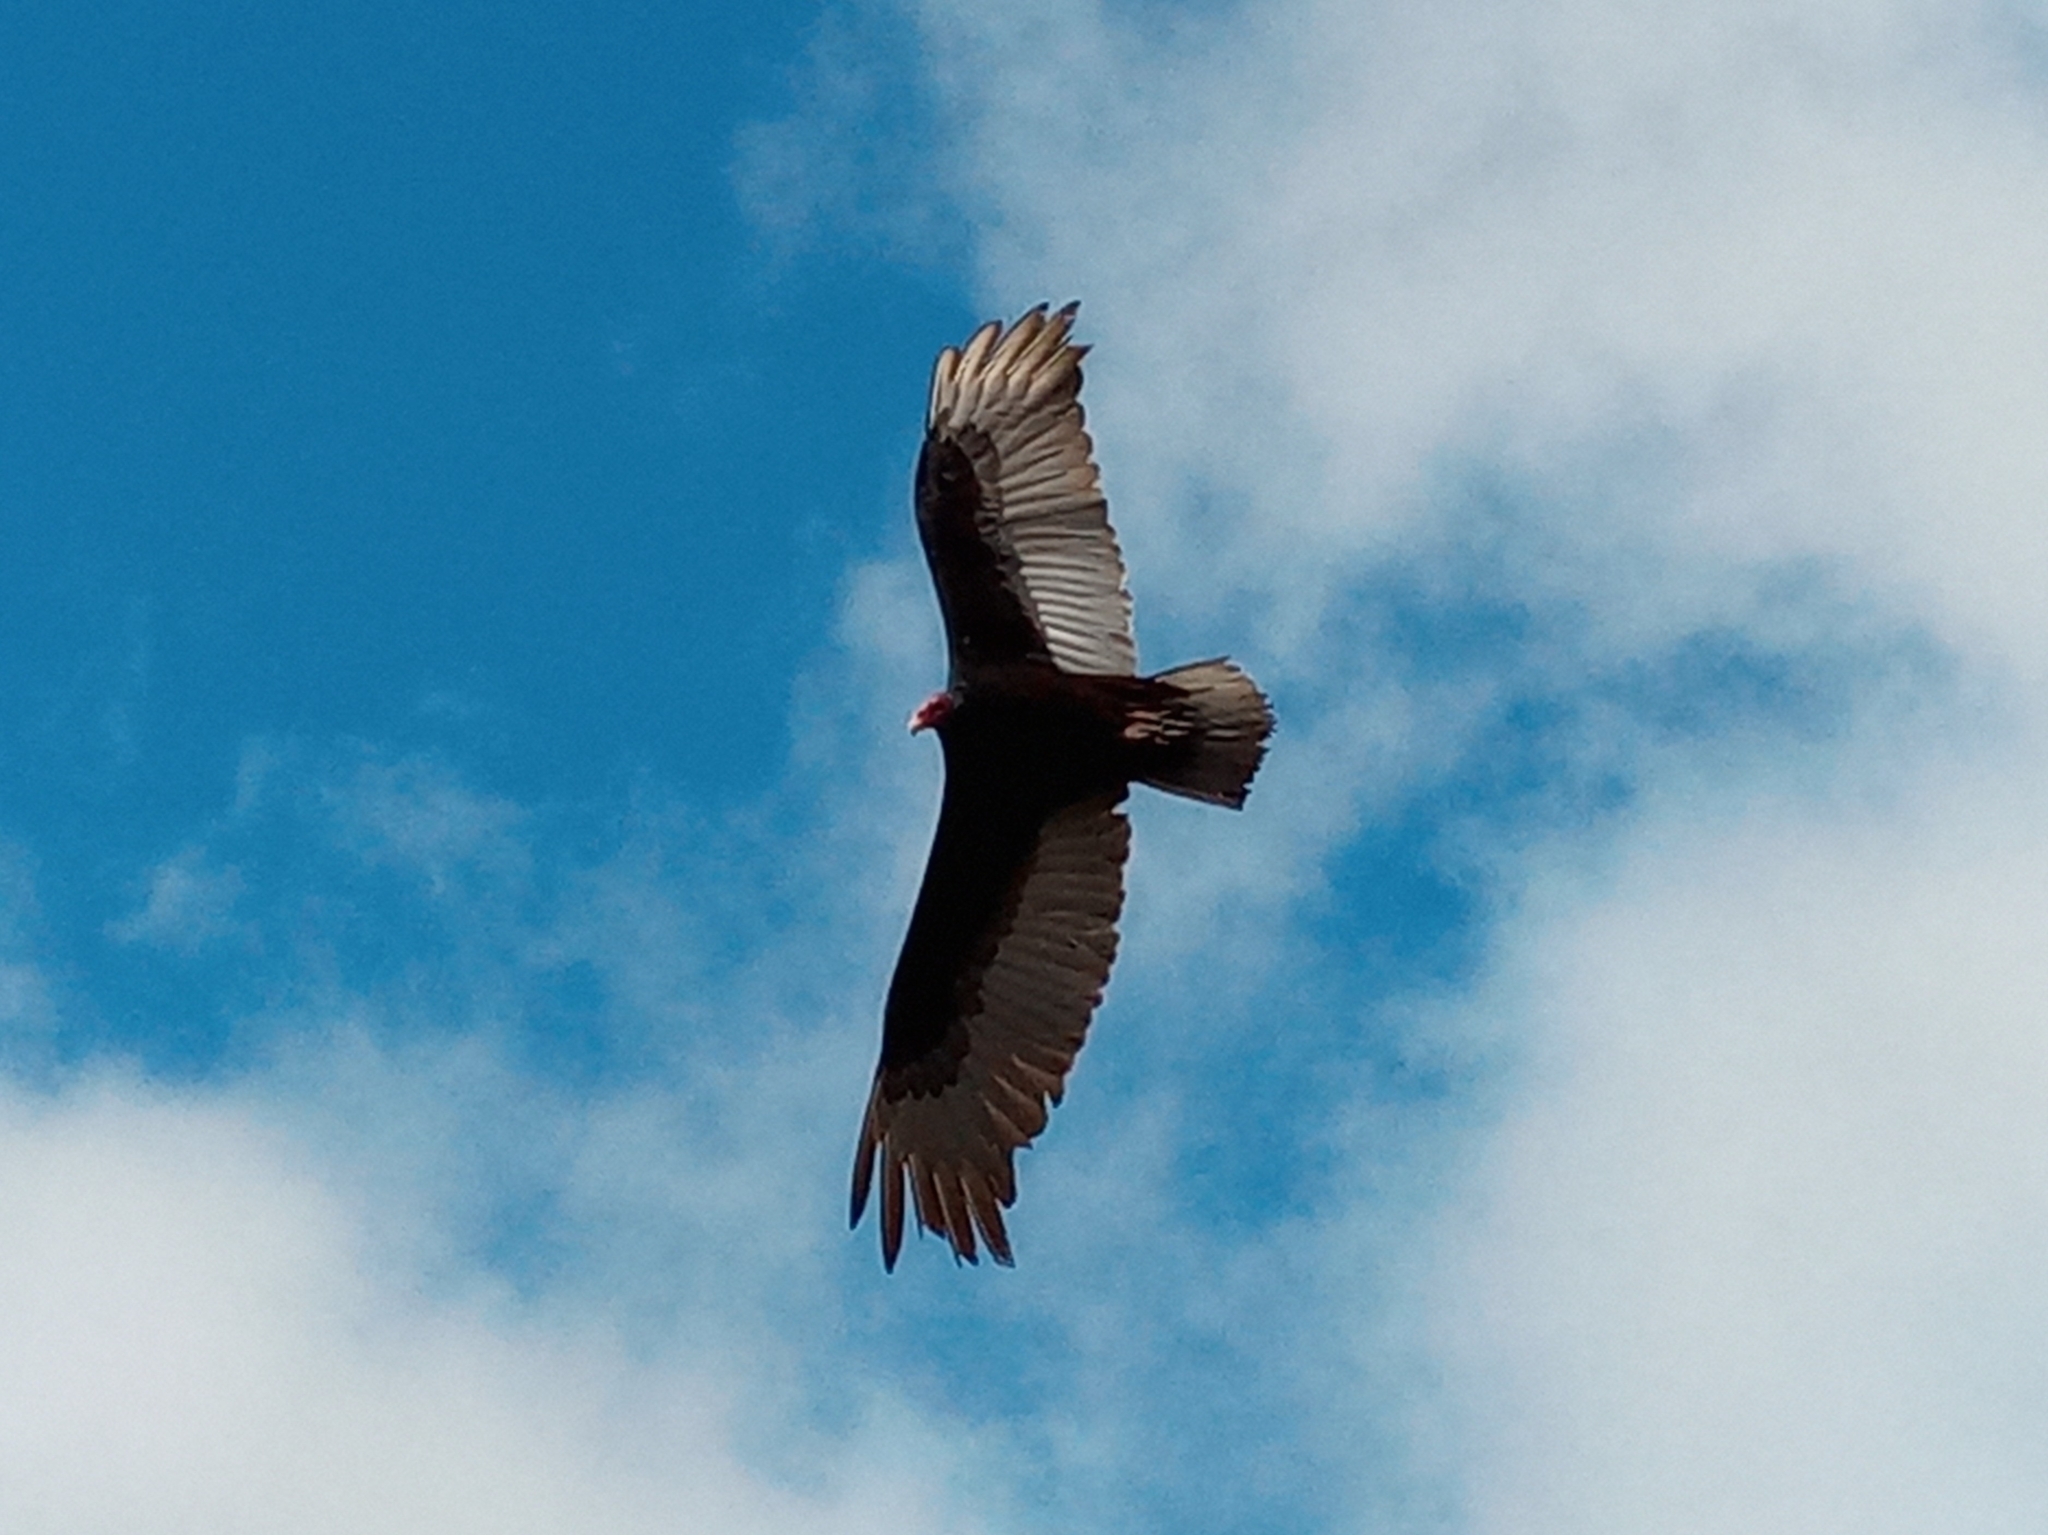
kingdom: Animalia
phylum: Chordata
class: Aves
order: Accipitriformes
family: Cathartidae
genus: Cathartes
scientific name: Cathartes aura
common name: Turkey vulture
